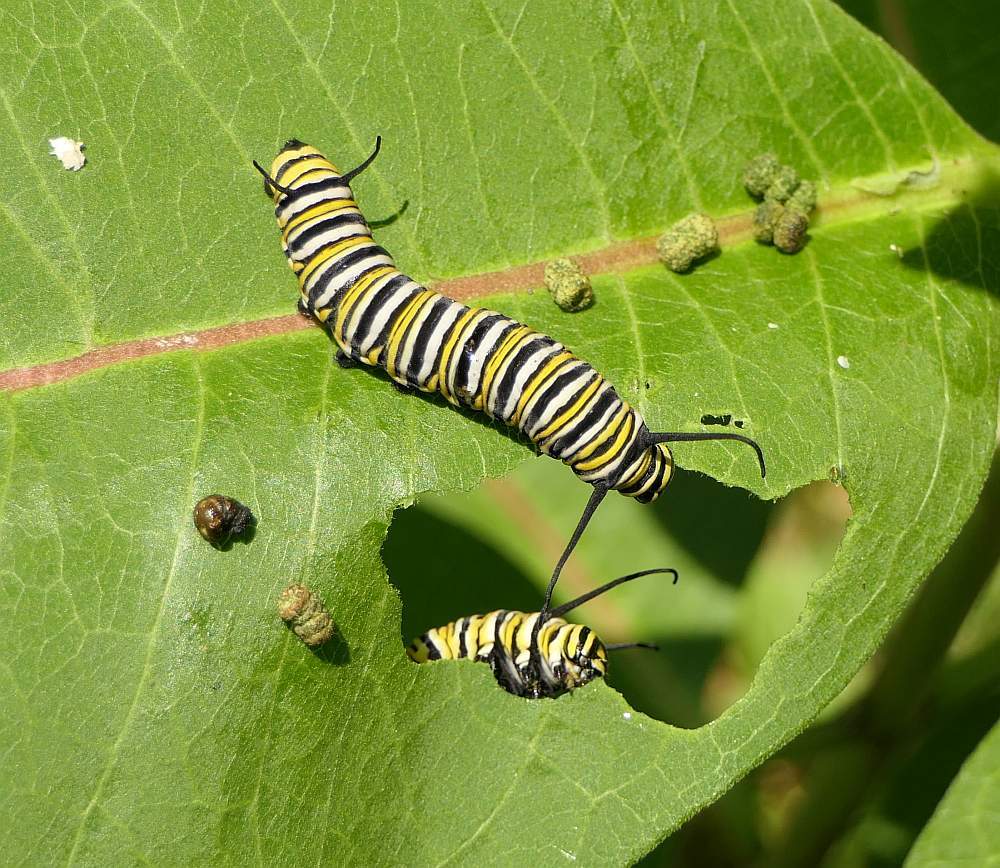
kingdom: Animalia
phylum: Arthropoda
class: Insecta
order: Lepidoptera
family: Nymphalidae
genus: Danaus
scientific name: Danaus plexippus
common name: Monarch
